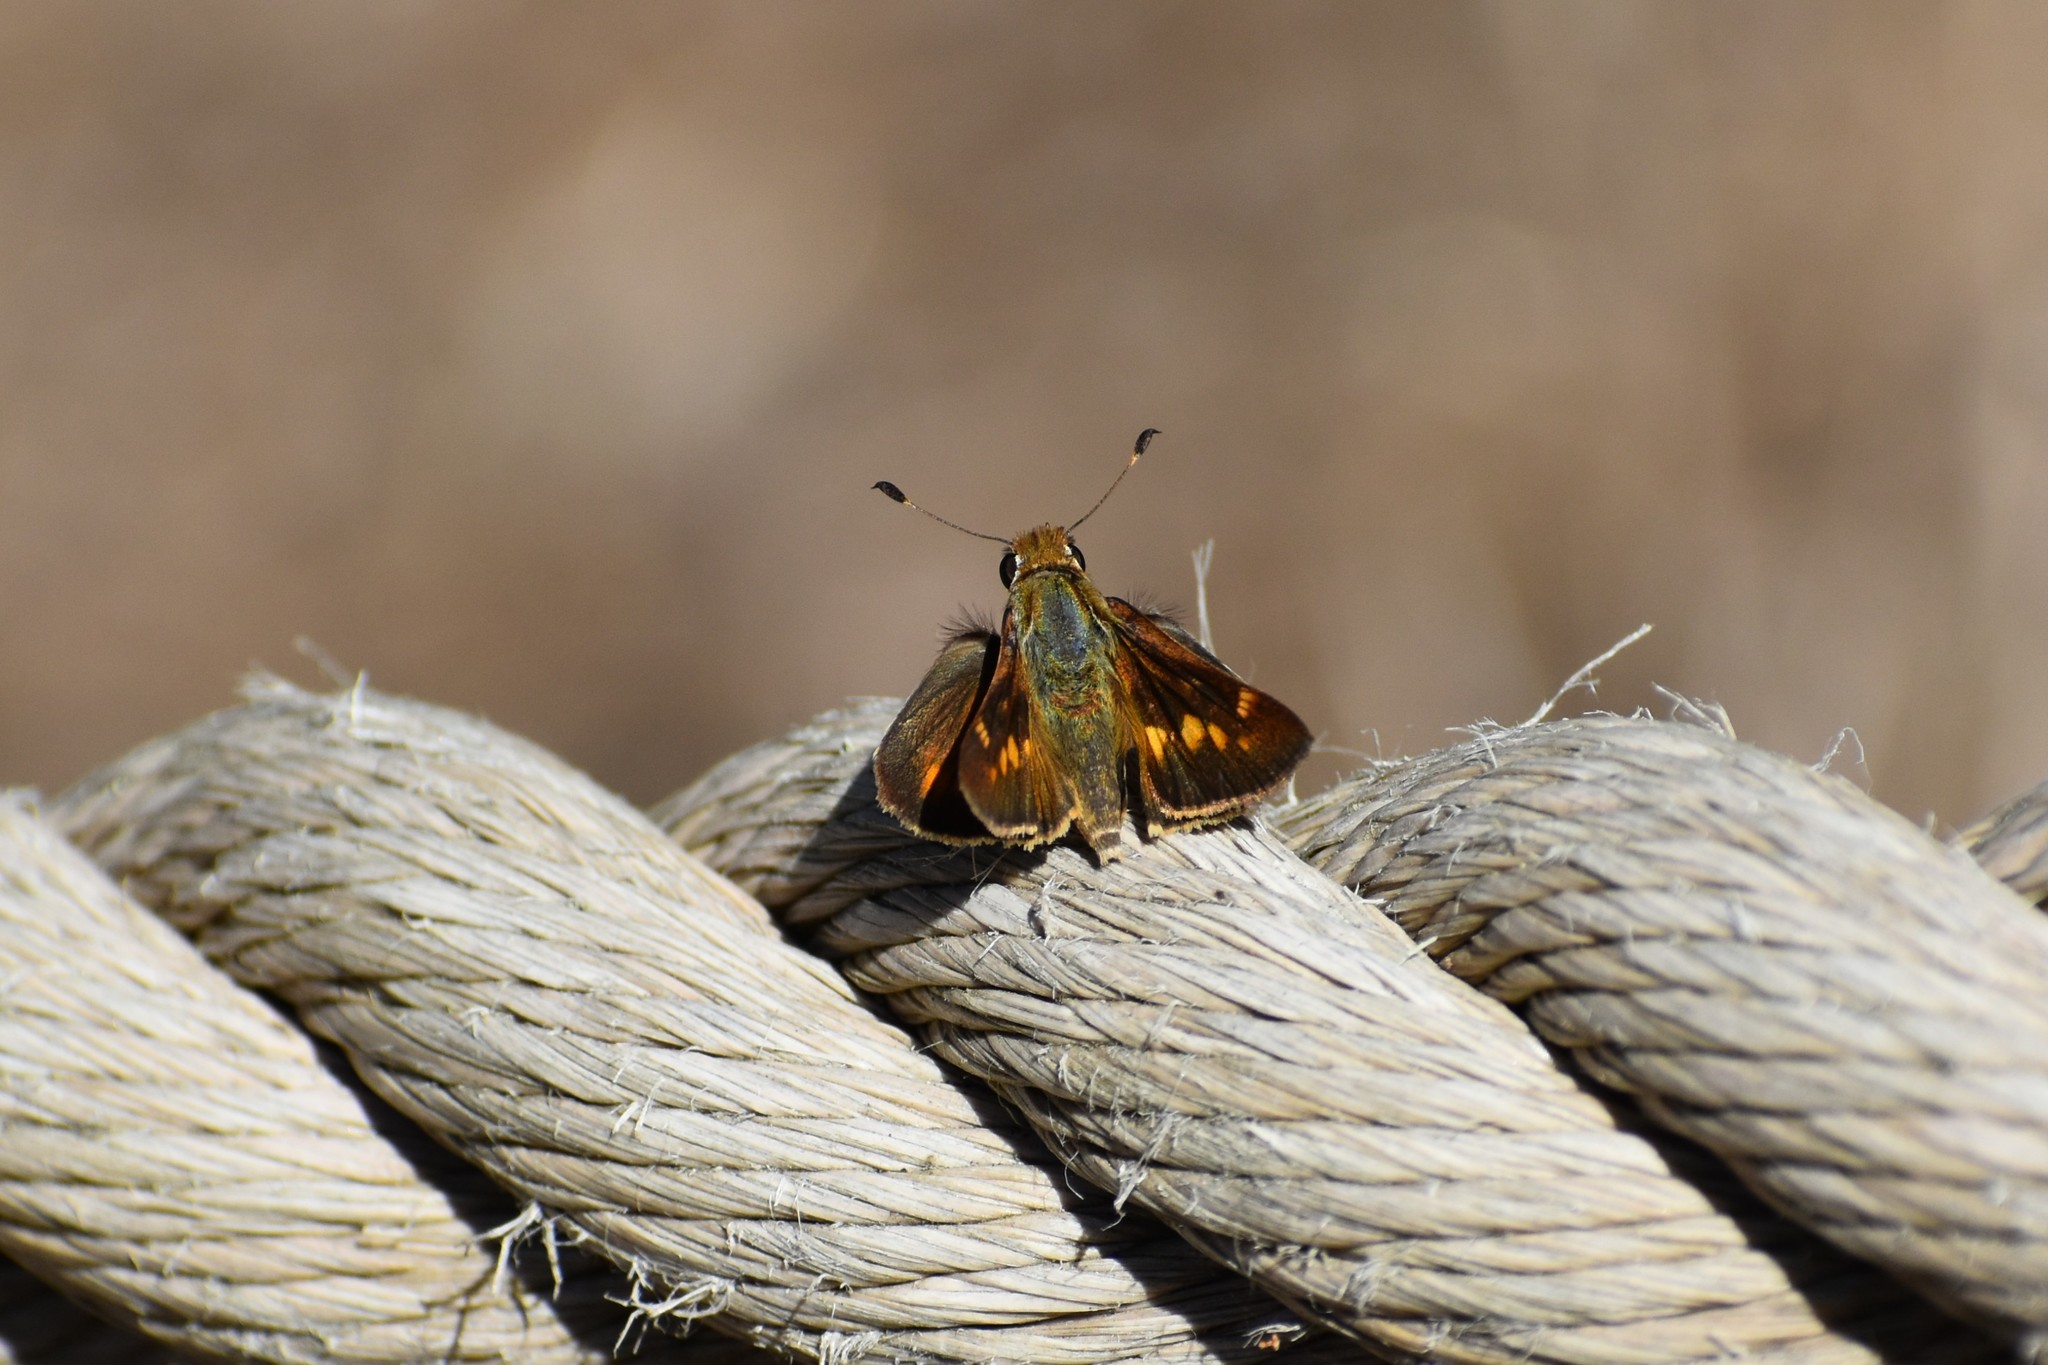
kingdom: Animalia
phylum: Arthropoda
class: Insecta
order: Lepidoptera
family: Hesperiidae
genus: Lon
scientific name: Lon melane
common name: Umber skipper
